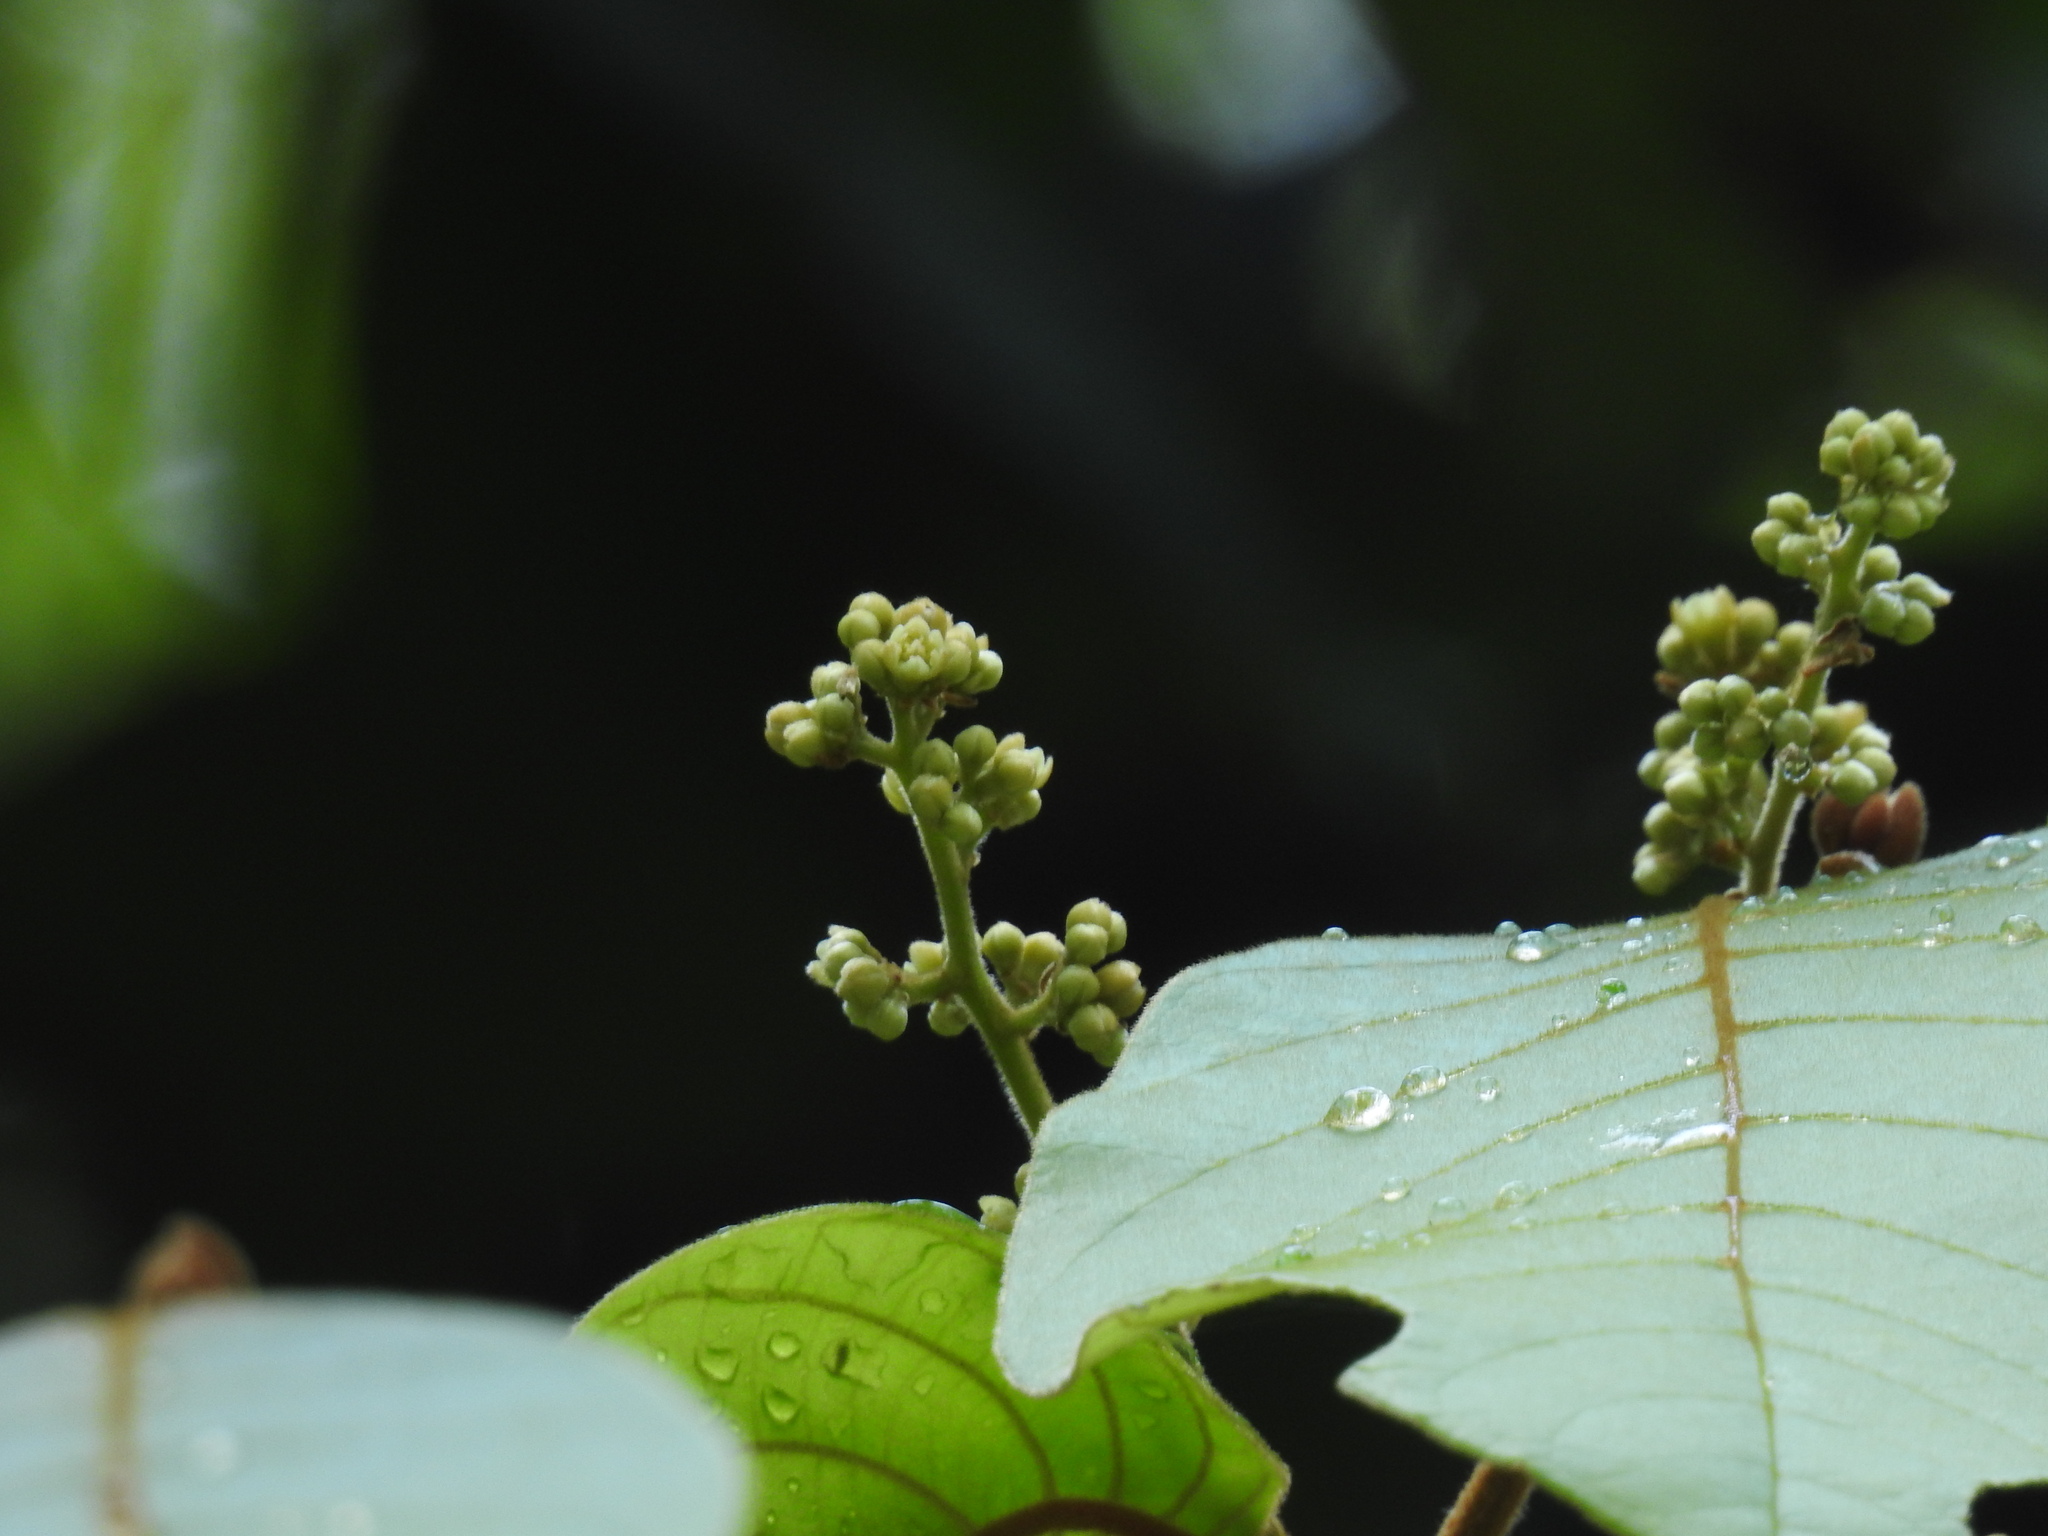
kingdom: Plantae
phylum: Tracheophyta
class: Magnoliopsida
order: Laurales
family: Lauraceae
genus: Cryptocarya
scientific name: Cryptocarya anamalayana
